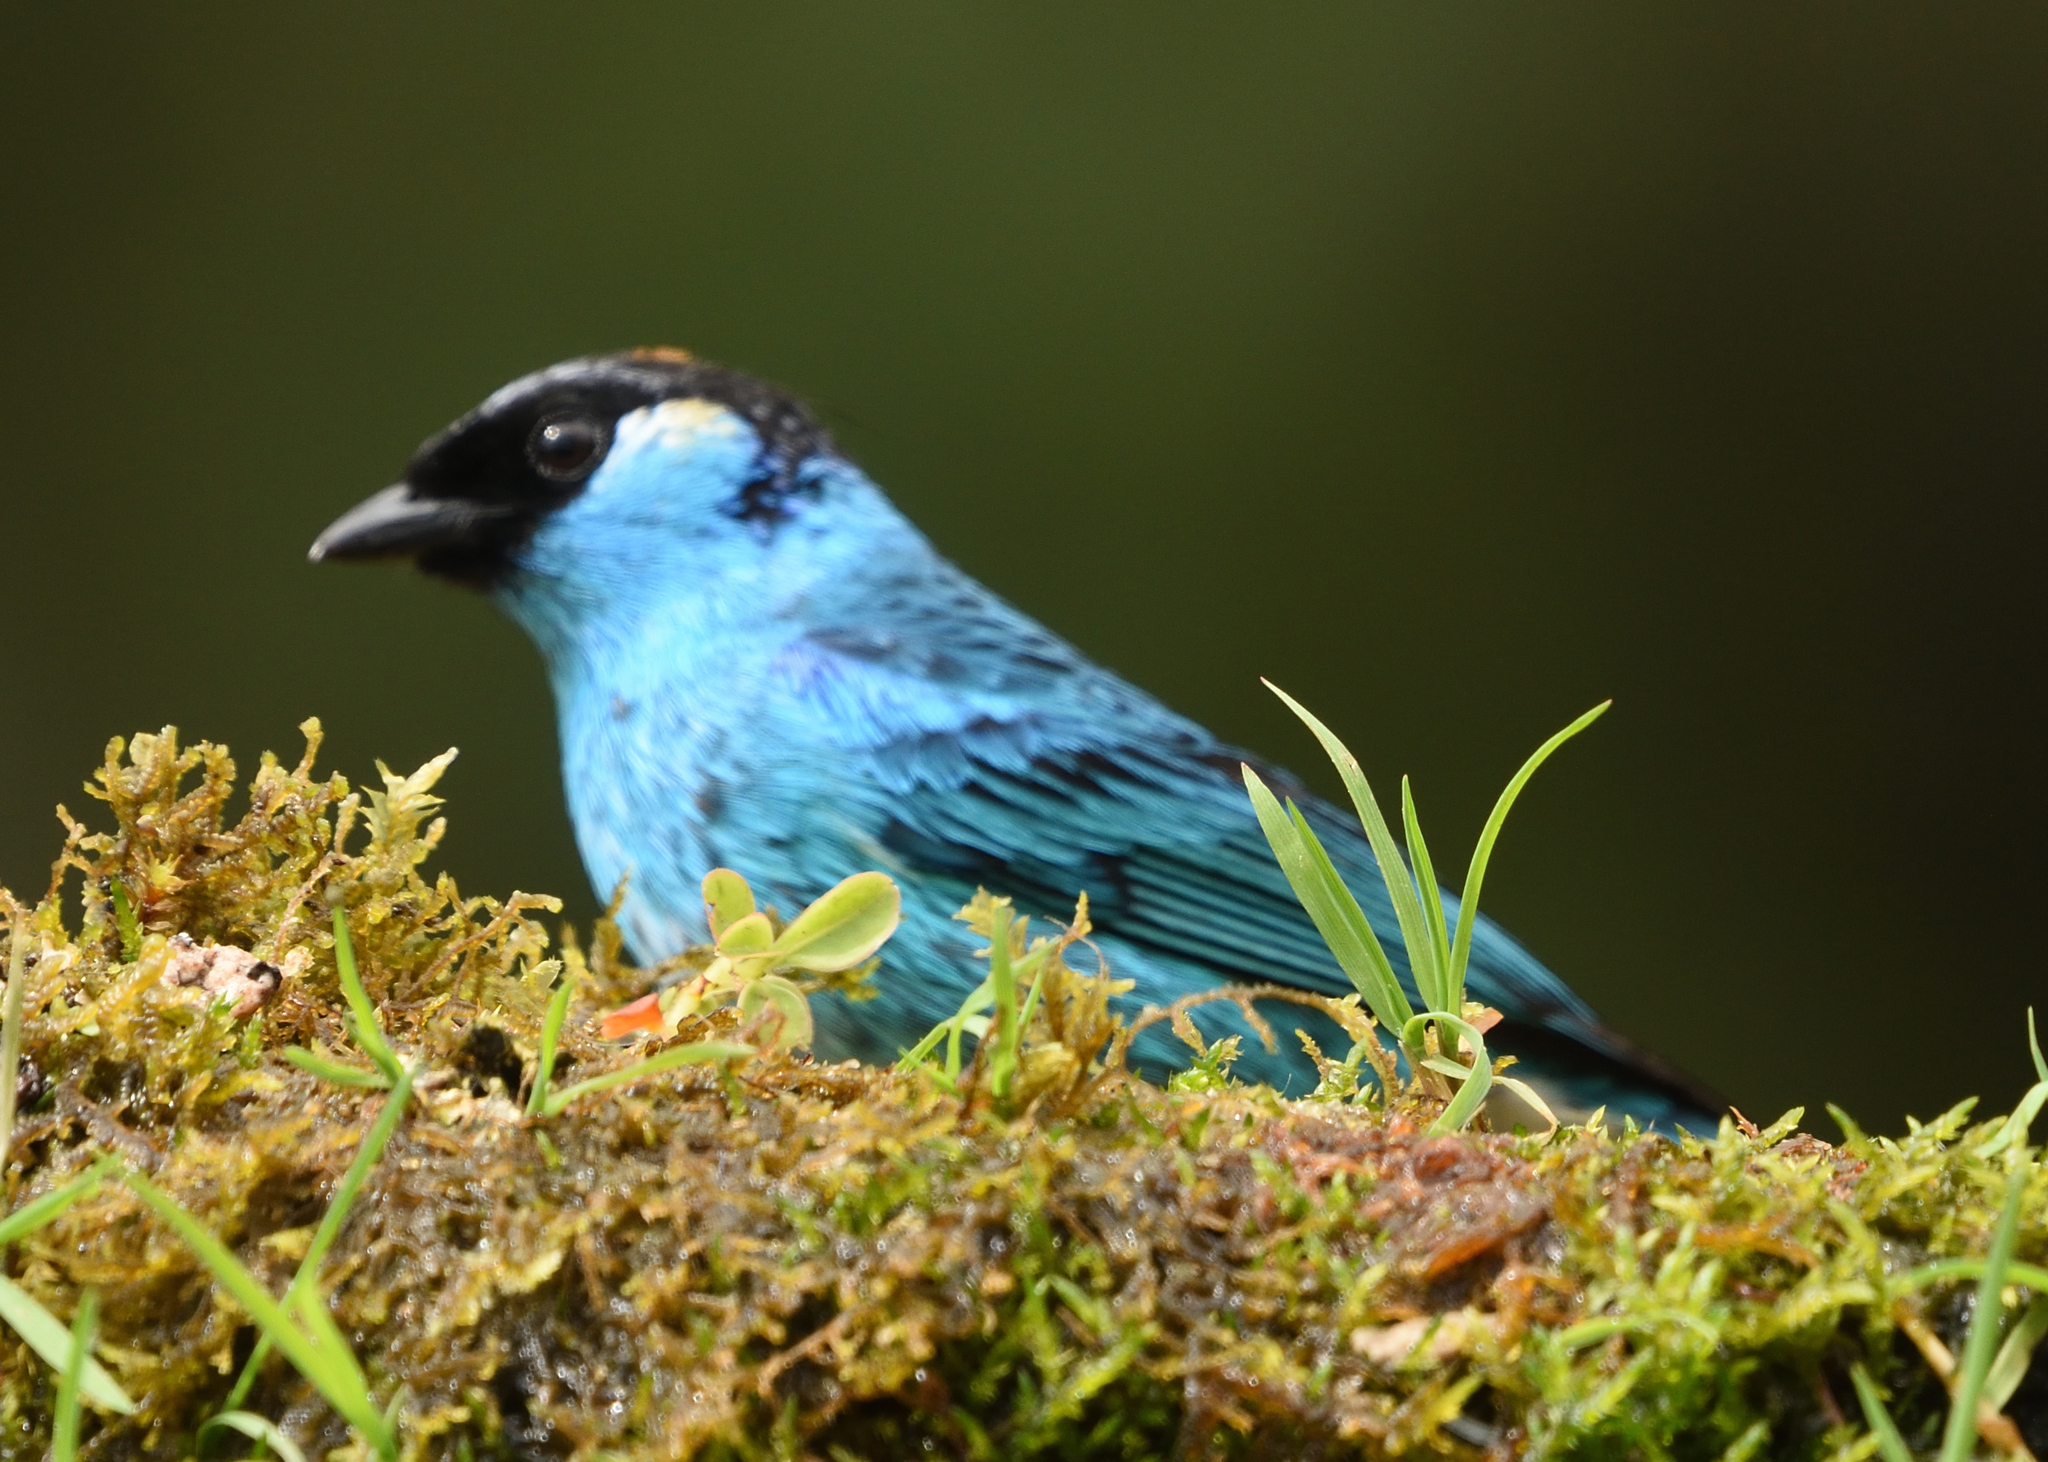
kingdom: Animalia
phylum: Chordata
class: Aves
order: Passeriformes
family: Thraupidae
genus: Chalcothraupis
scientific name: Chalcothraupis ruficervix
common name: Golden-naped tanager
